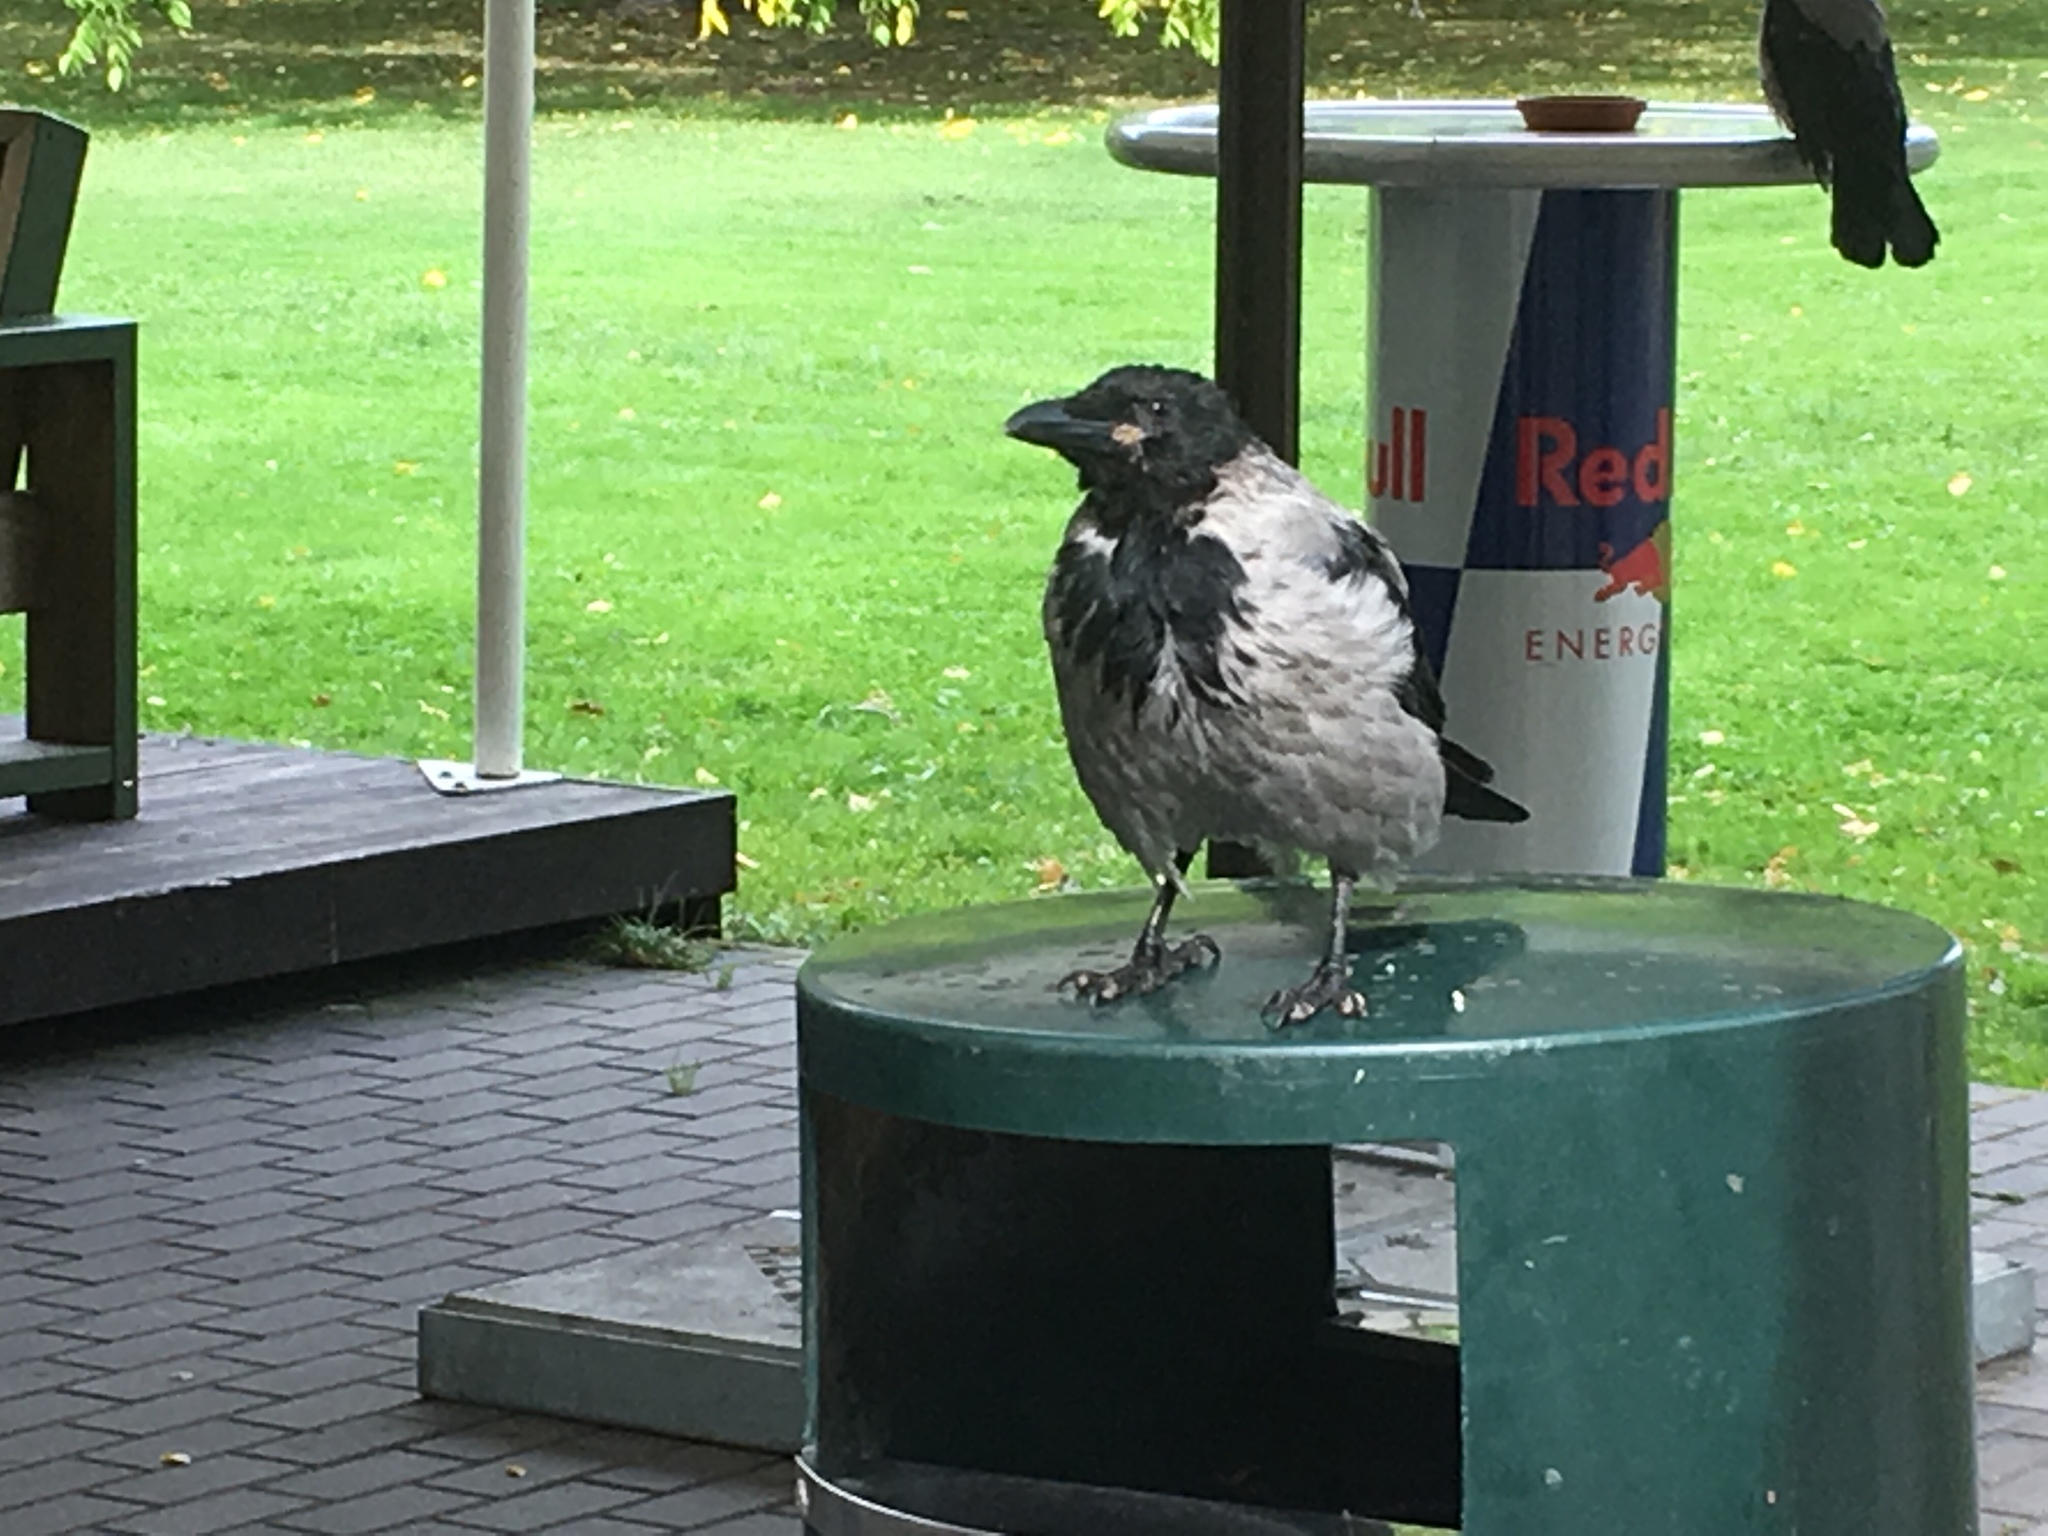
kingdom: Animalia
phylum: Chordata
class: Aves
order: Passeriformes
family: Corvidae
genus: Corvus
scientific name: Corvus cornix
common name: Hooded crow
